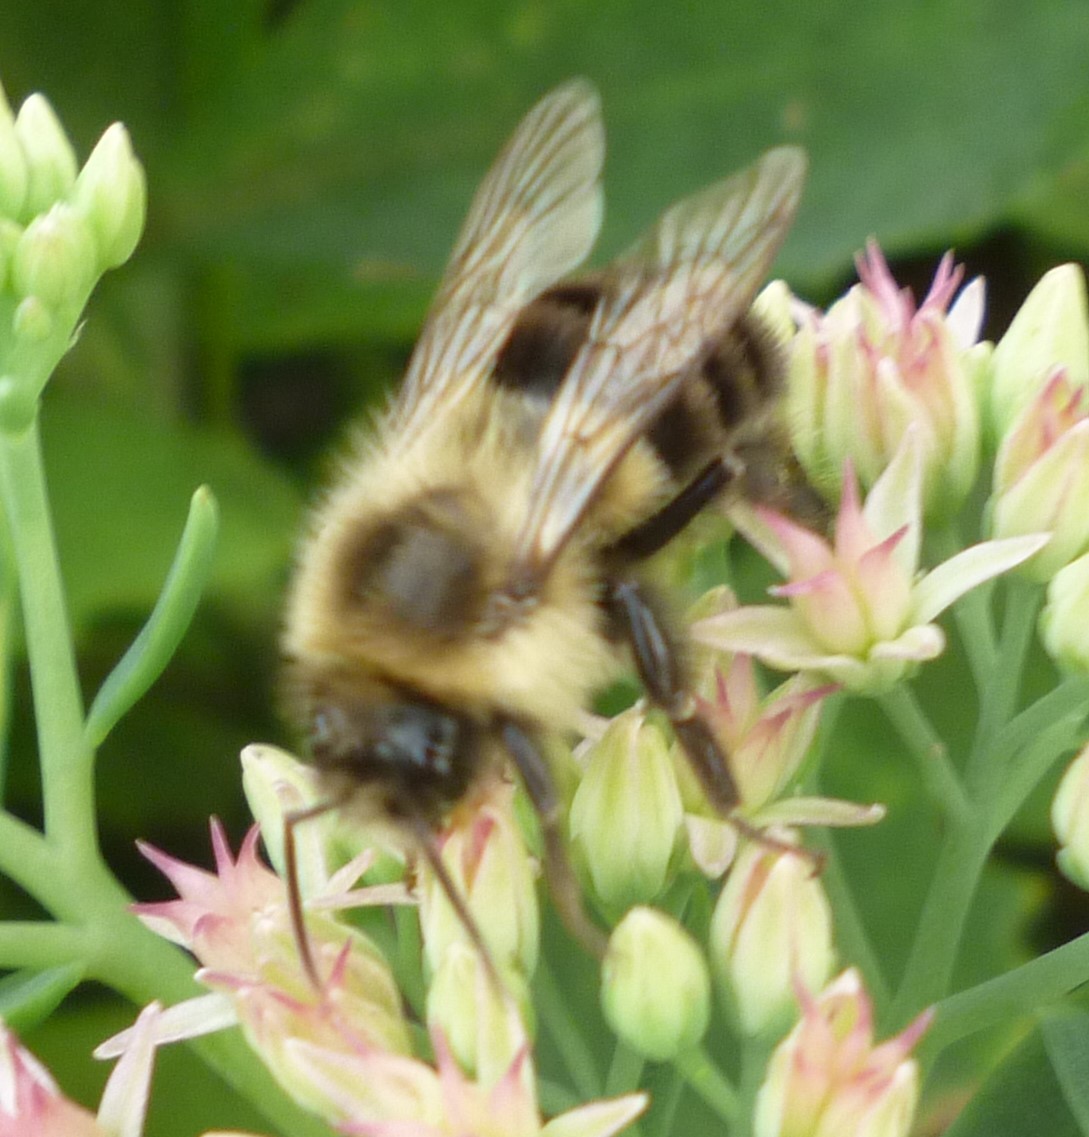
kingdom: Animalia
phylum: Arthropoda
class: Insecta
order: Hymenoptera
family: Apidae
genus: Bombus
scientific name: Bombus impatiens
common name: Common eastern bumble bee
